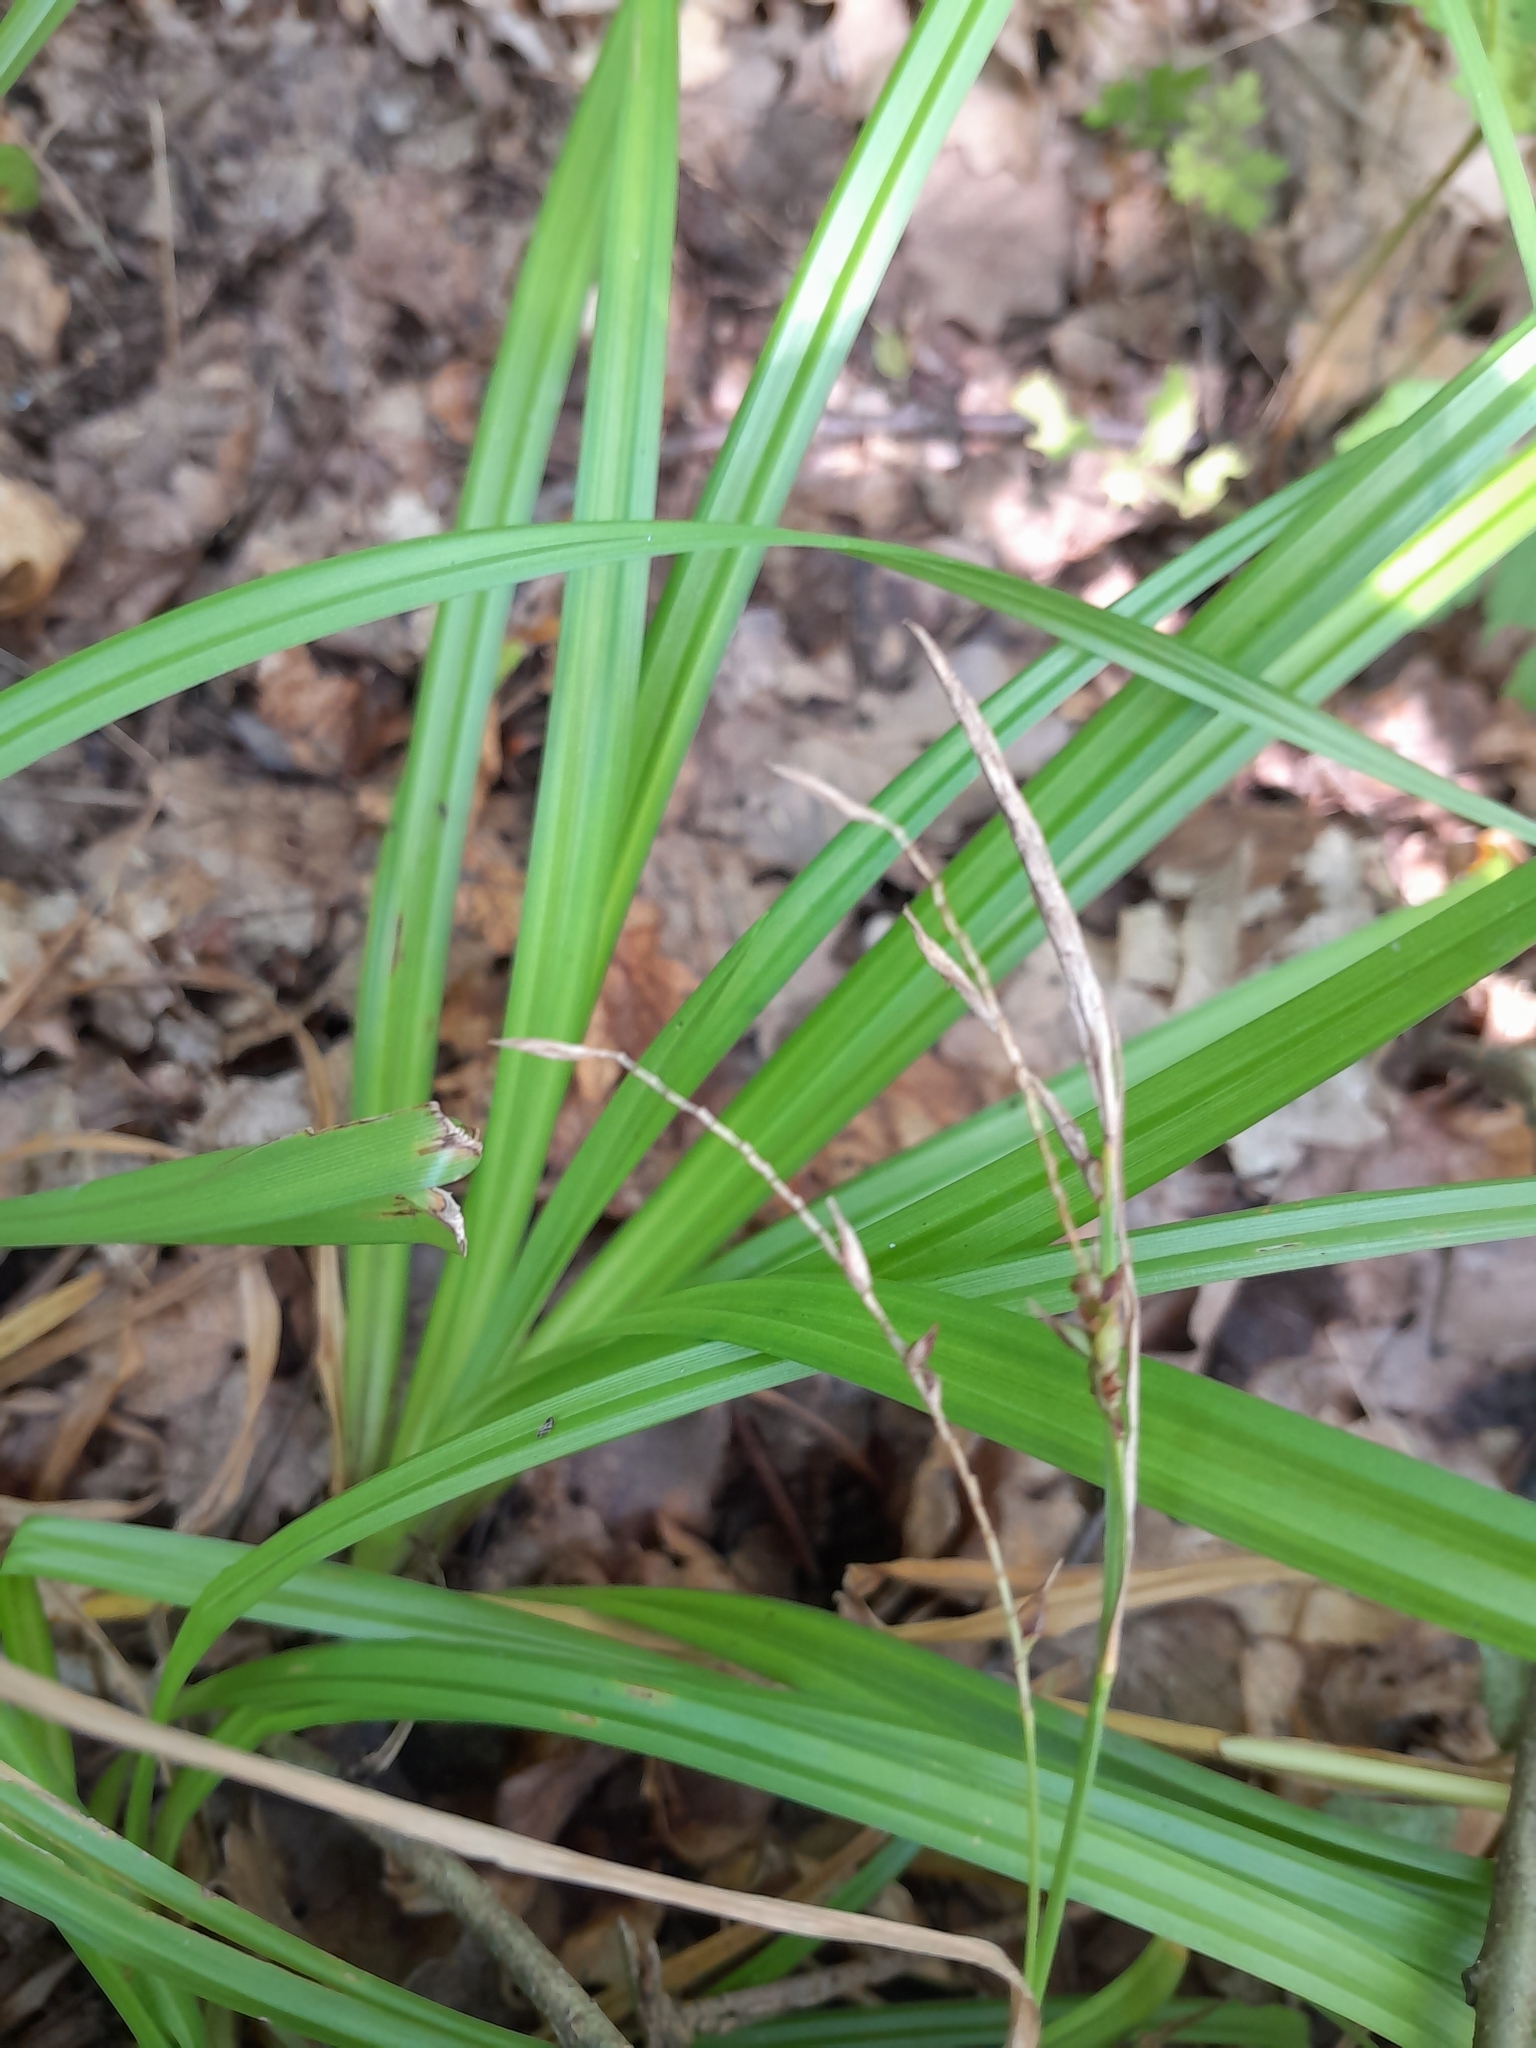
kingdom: Plantae
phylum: Tracheophyta
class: Liliopsida
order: Poales
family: Cyperaceae
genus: Carex
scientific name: Carex sylvatica
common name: Wood-sedge
